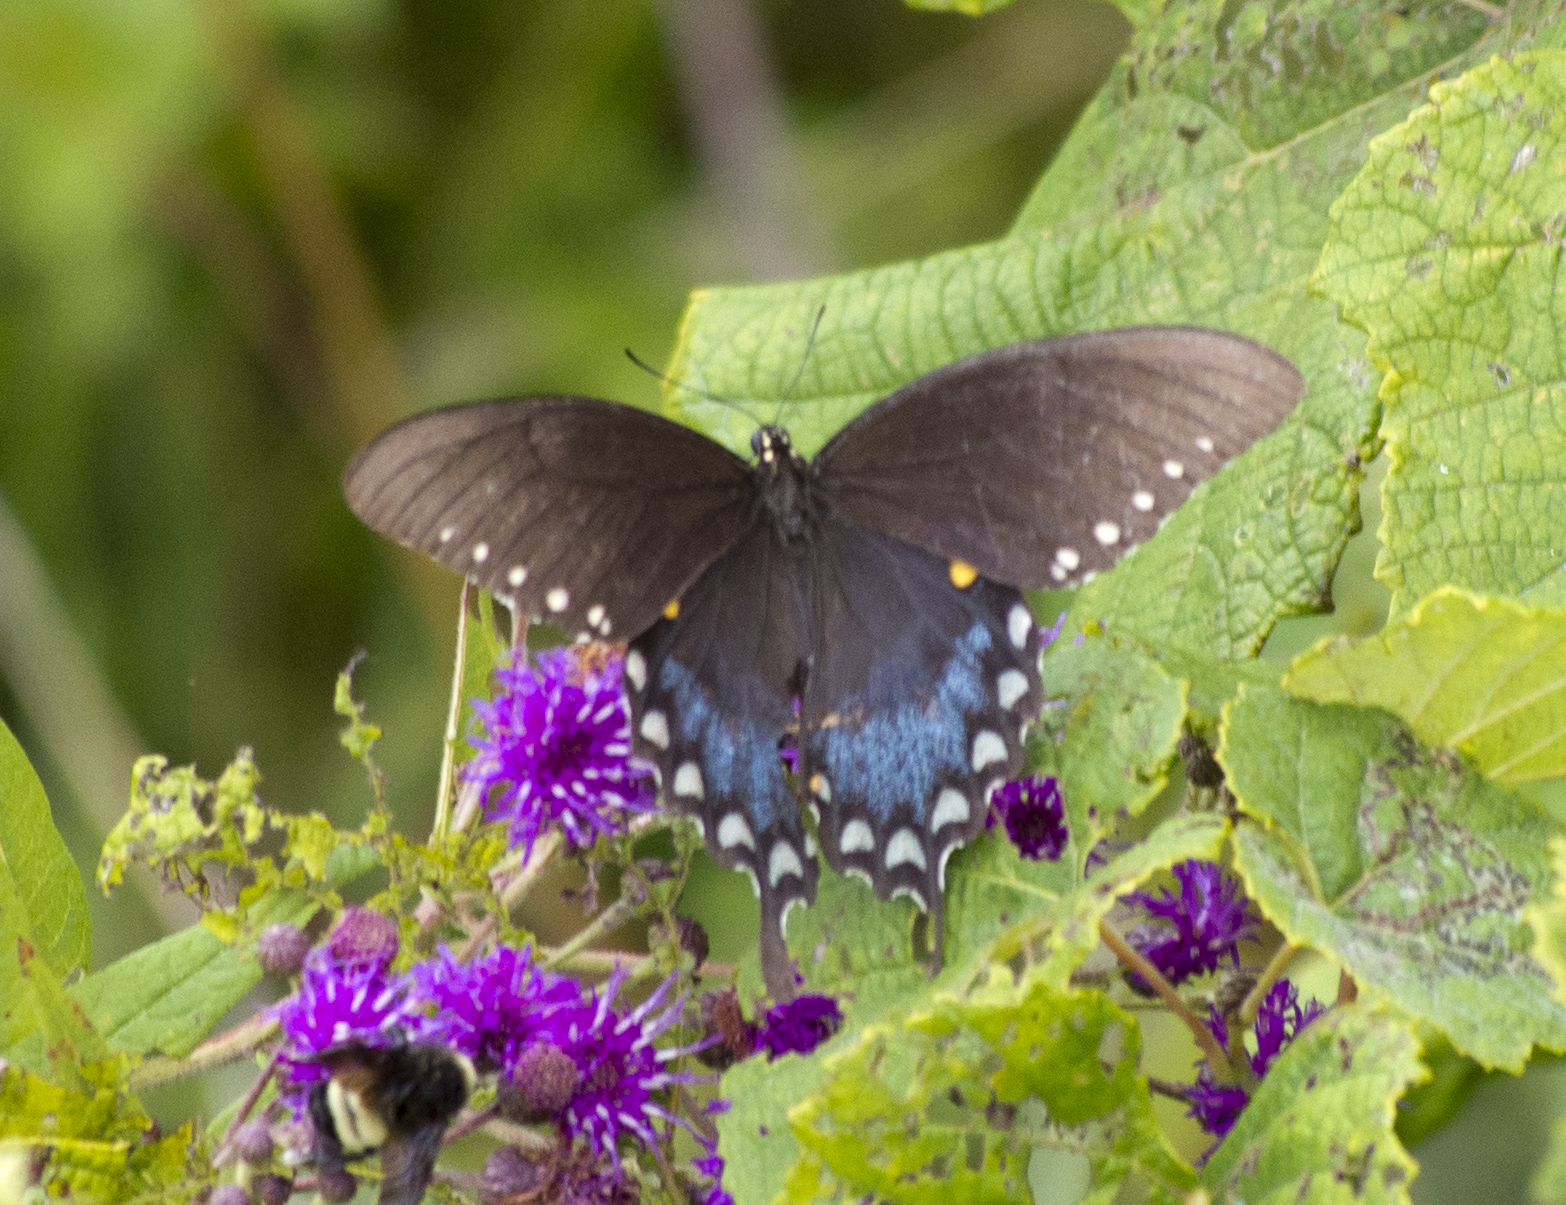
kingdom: Animalia
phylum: Arthropoda
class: Insecta
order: Lepidoptera
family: Papilionidae
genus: Papilio
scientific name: Papilio troilus
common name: Spicebush swallowtail
